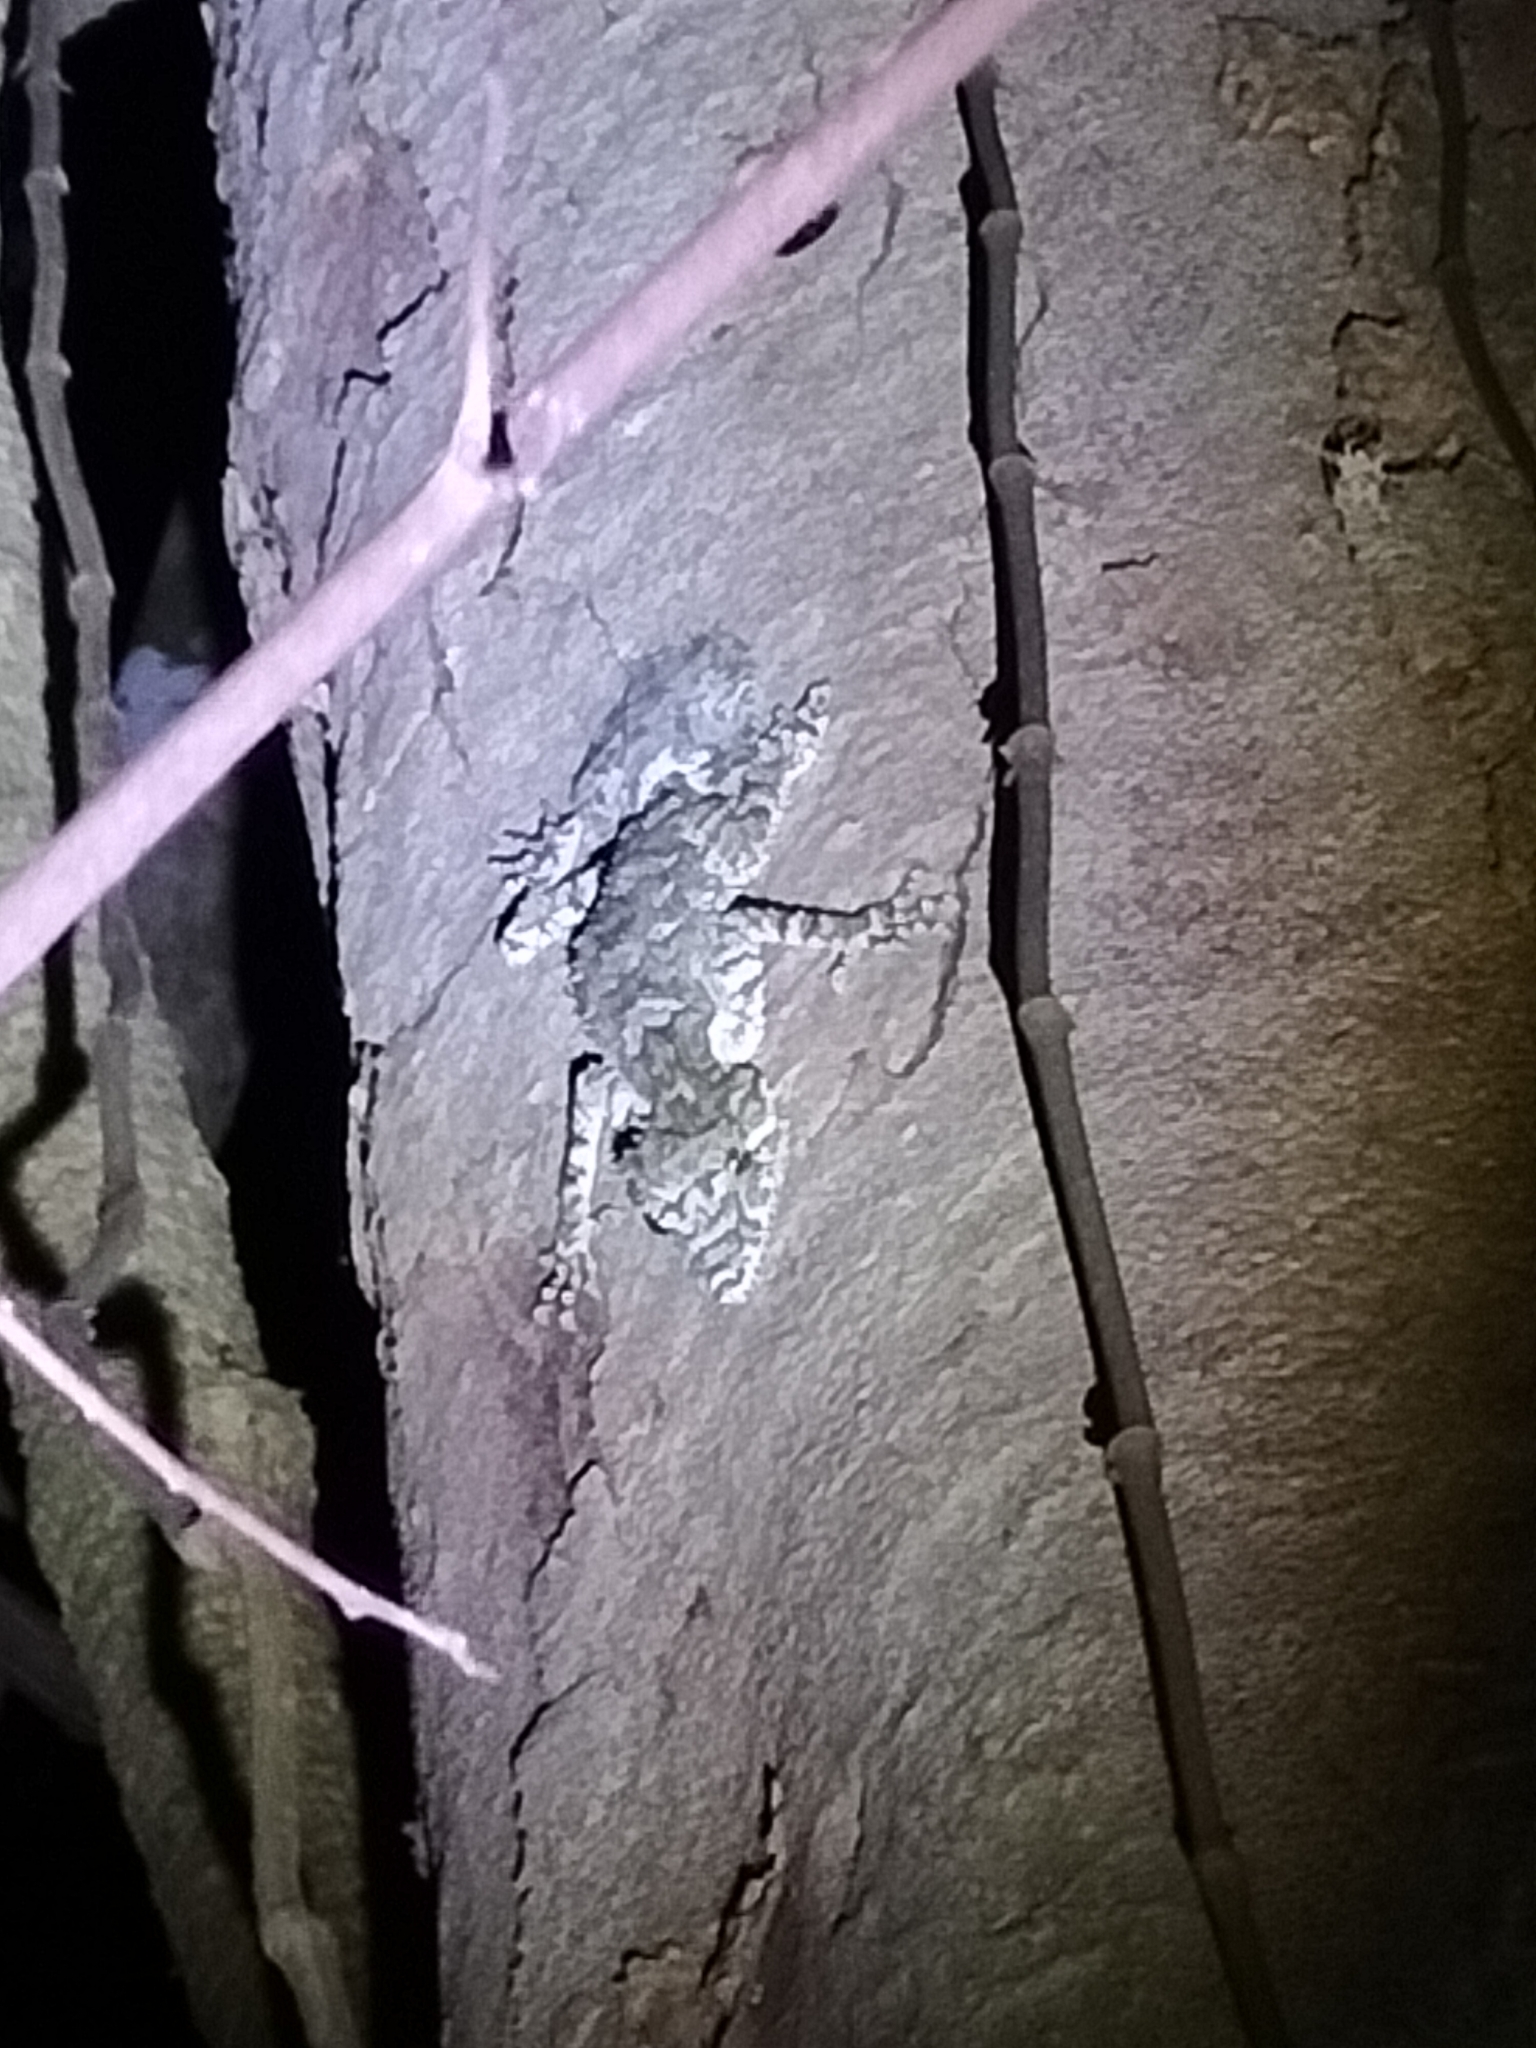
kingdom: Animalia
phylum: Chordata
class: Squamata
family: Carphodactylidae
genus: Saltuarius
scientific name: Saltuarius cornutus
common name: Leaf-tailed gecko
